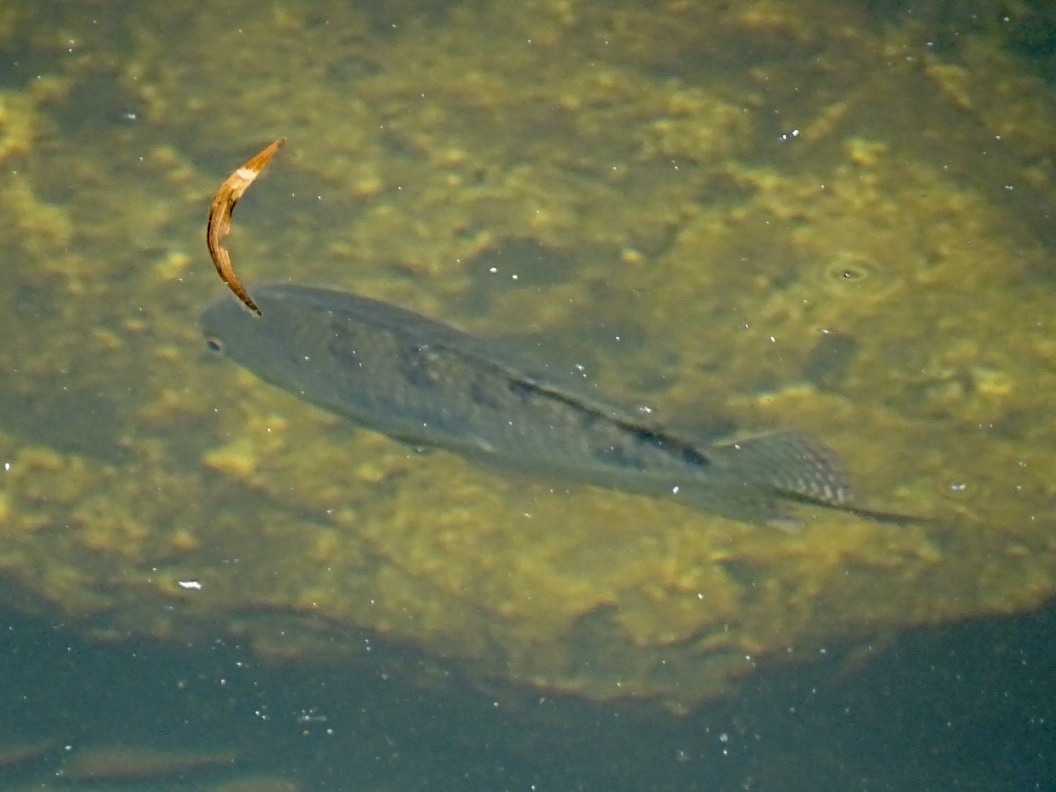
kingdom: Animalia
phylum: Chordata
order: Perciformes
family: Cichlidae
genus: Oreochromis
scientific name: Oreochromis niloticus
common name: Nile tilapia
